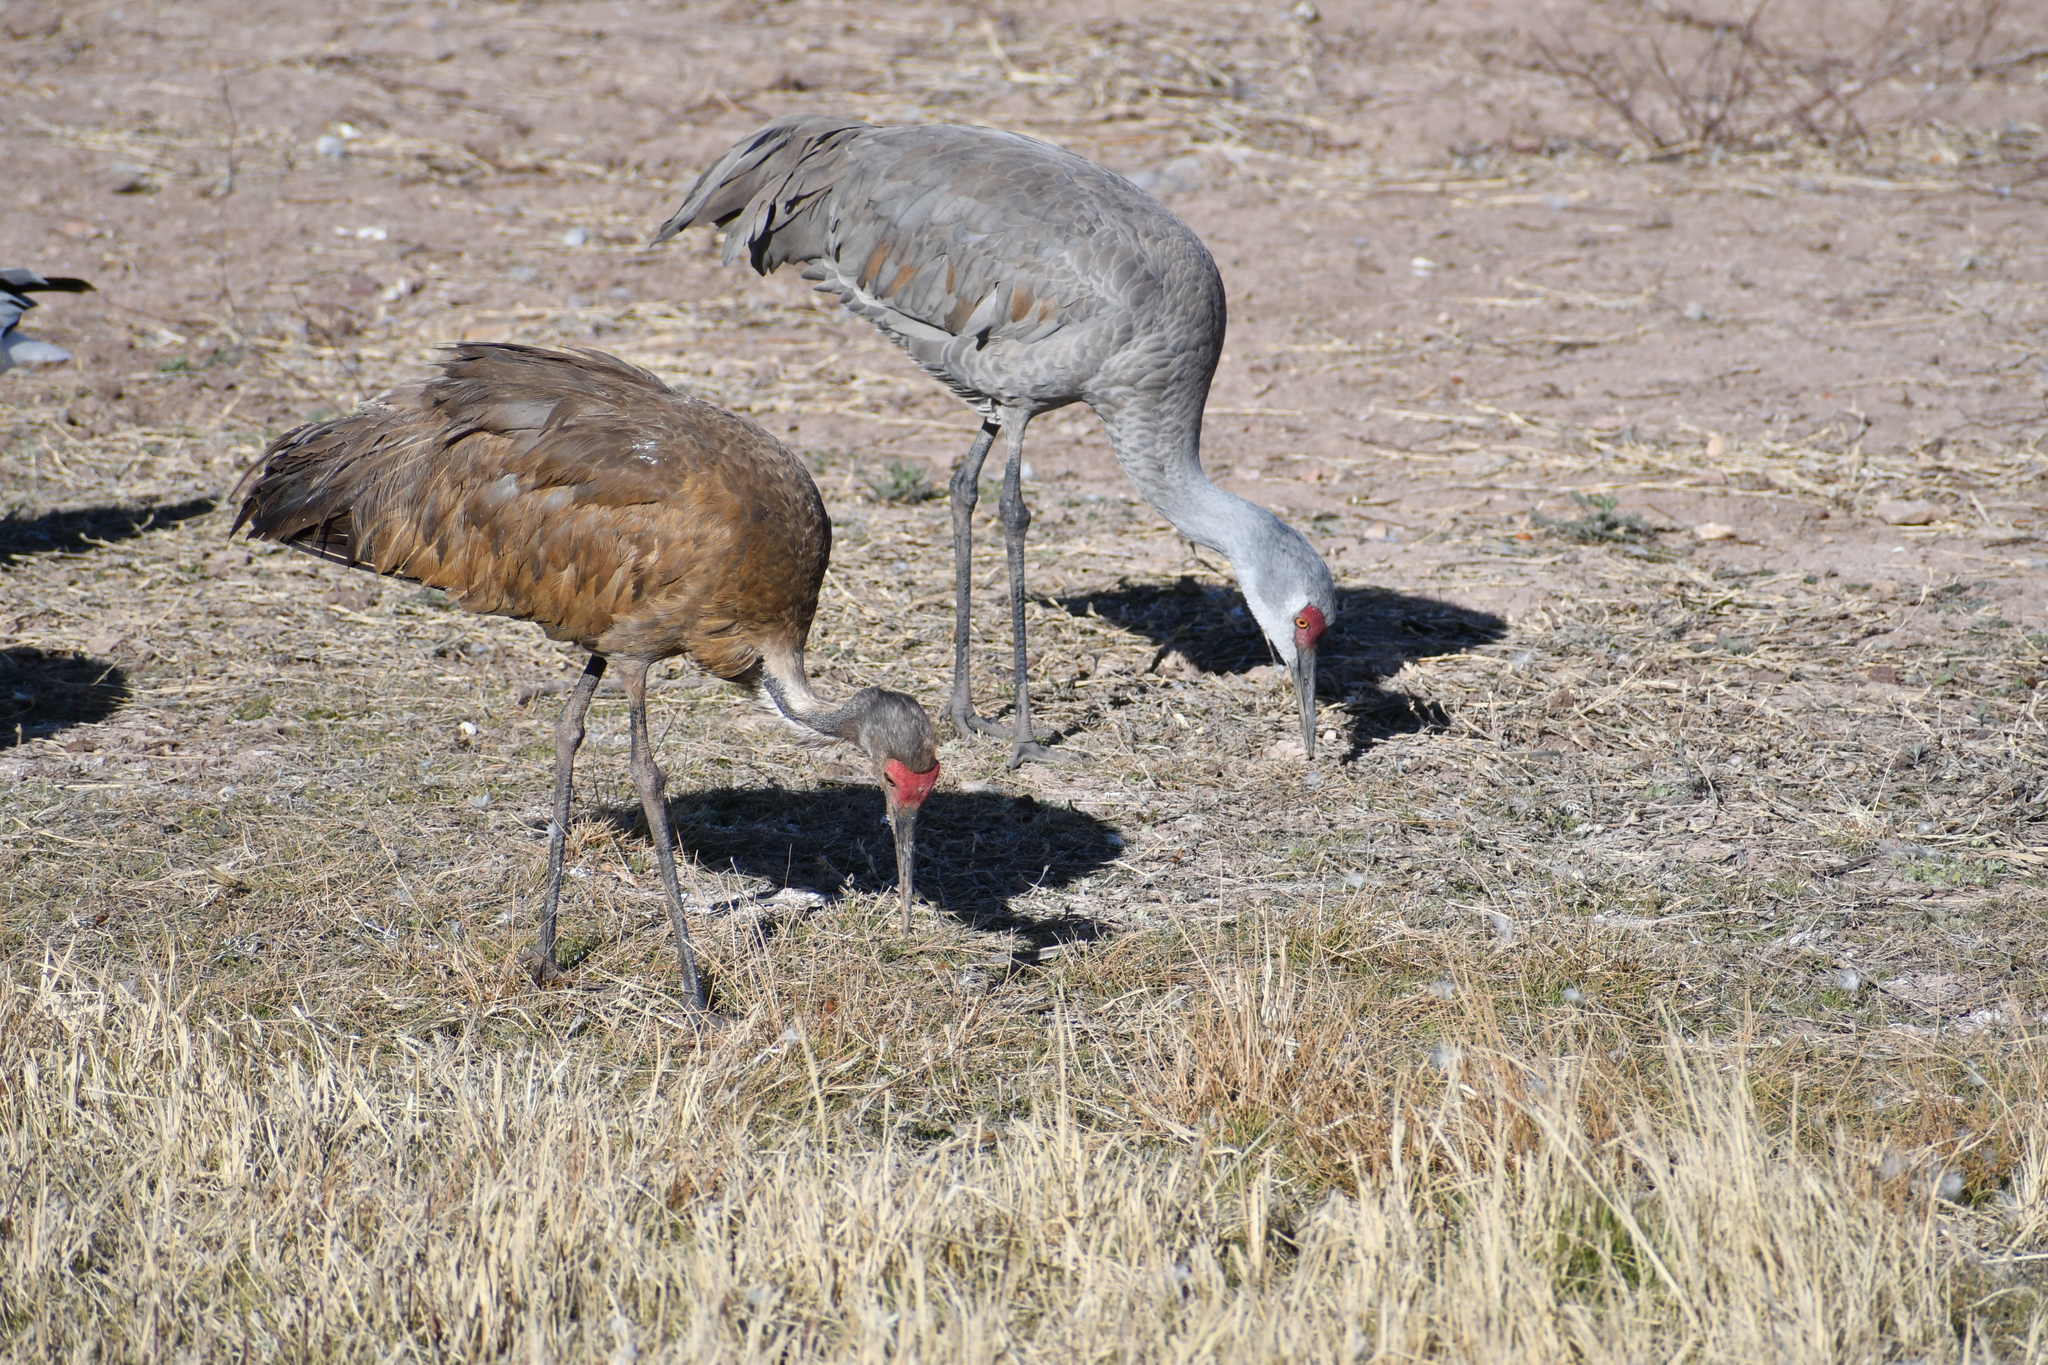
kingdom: Animalia
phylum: Chordata
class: Aves
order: Gruiformes
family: Gruidae
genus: Grus
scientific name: Grus canadensis
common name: Sandhill crane
